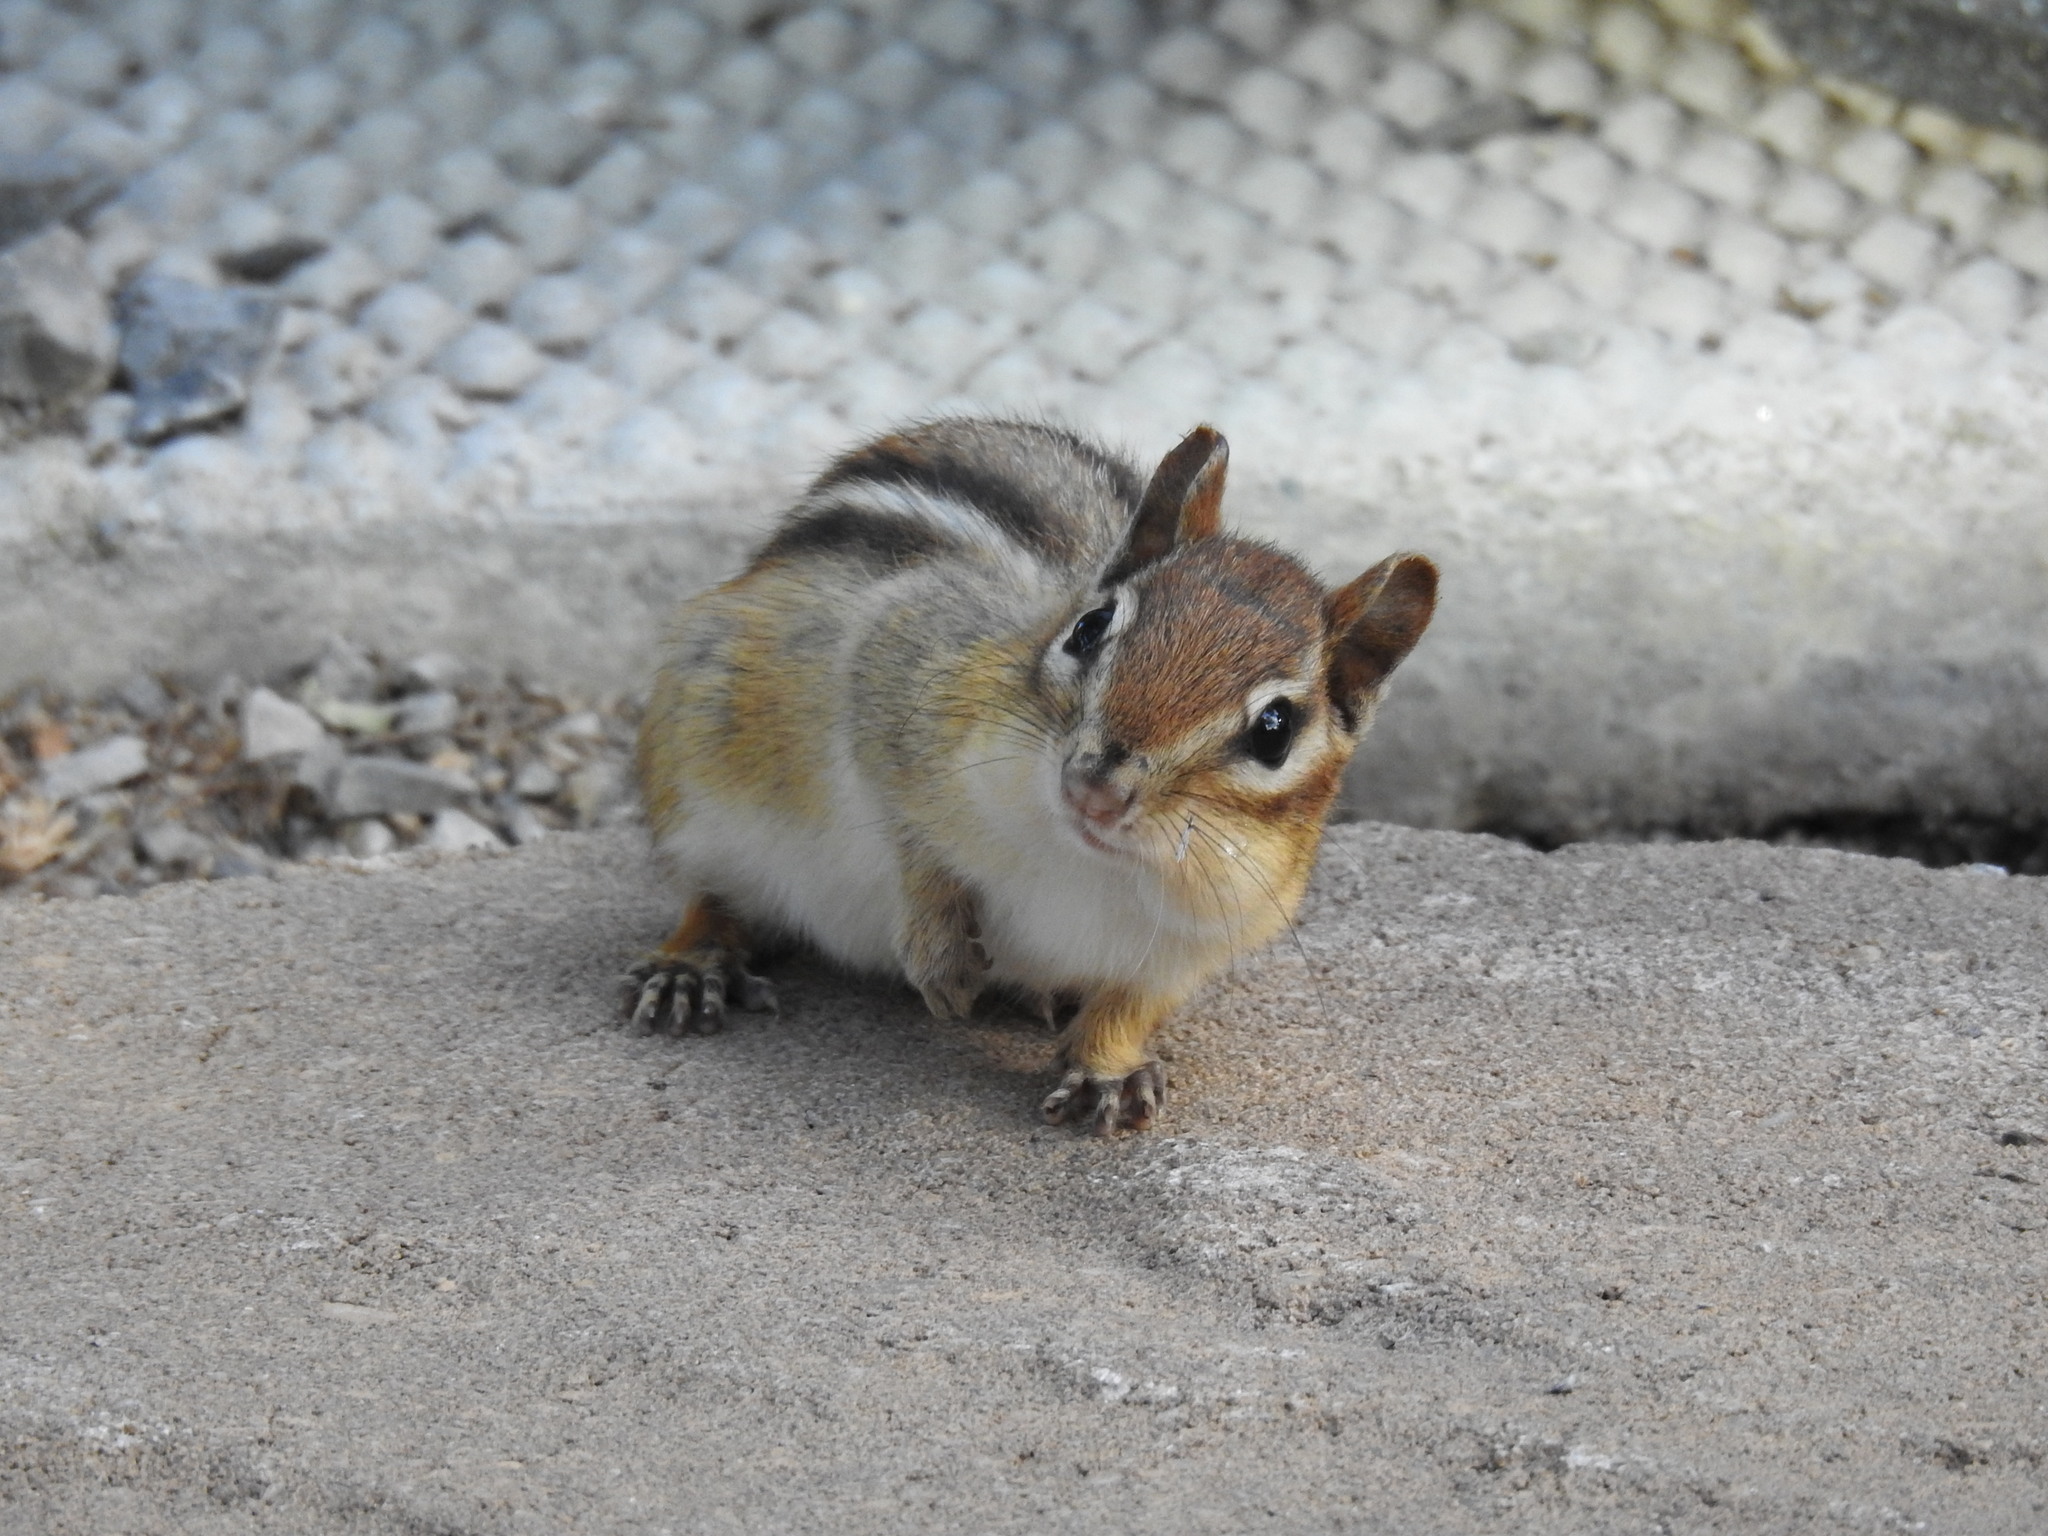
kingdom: Animalia
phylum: Chordata
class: Mammalia
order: Rodentia
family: Sciuridae
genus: Tamias
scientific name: Tamias striatus
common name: Eastern chipmunk
